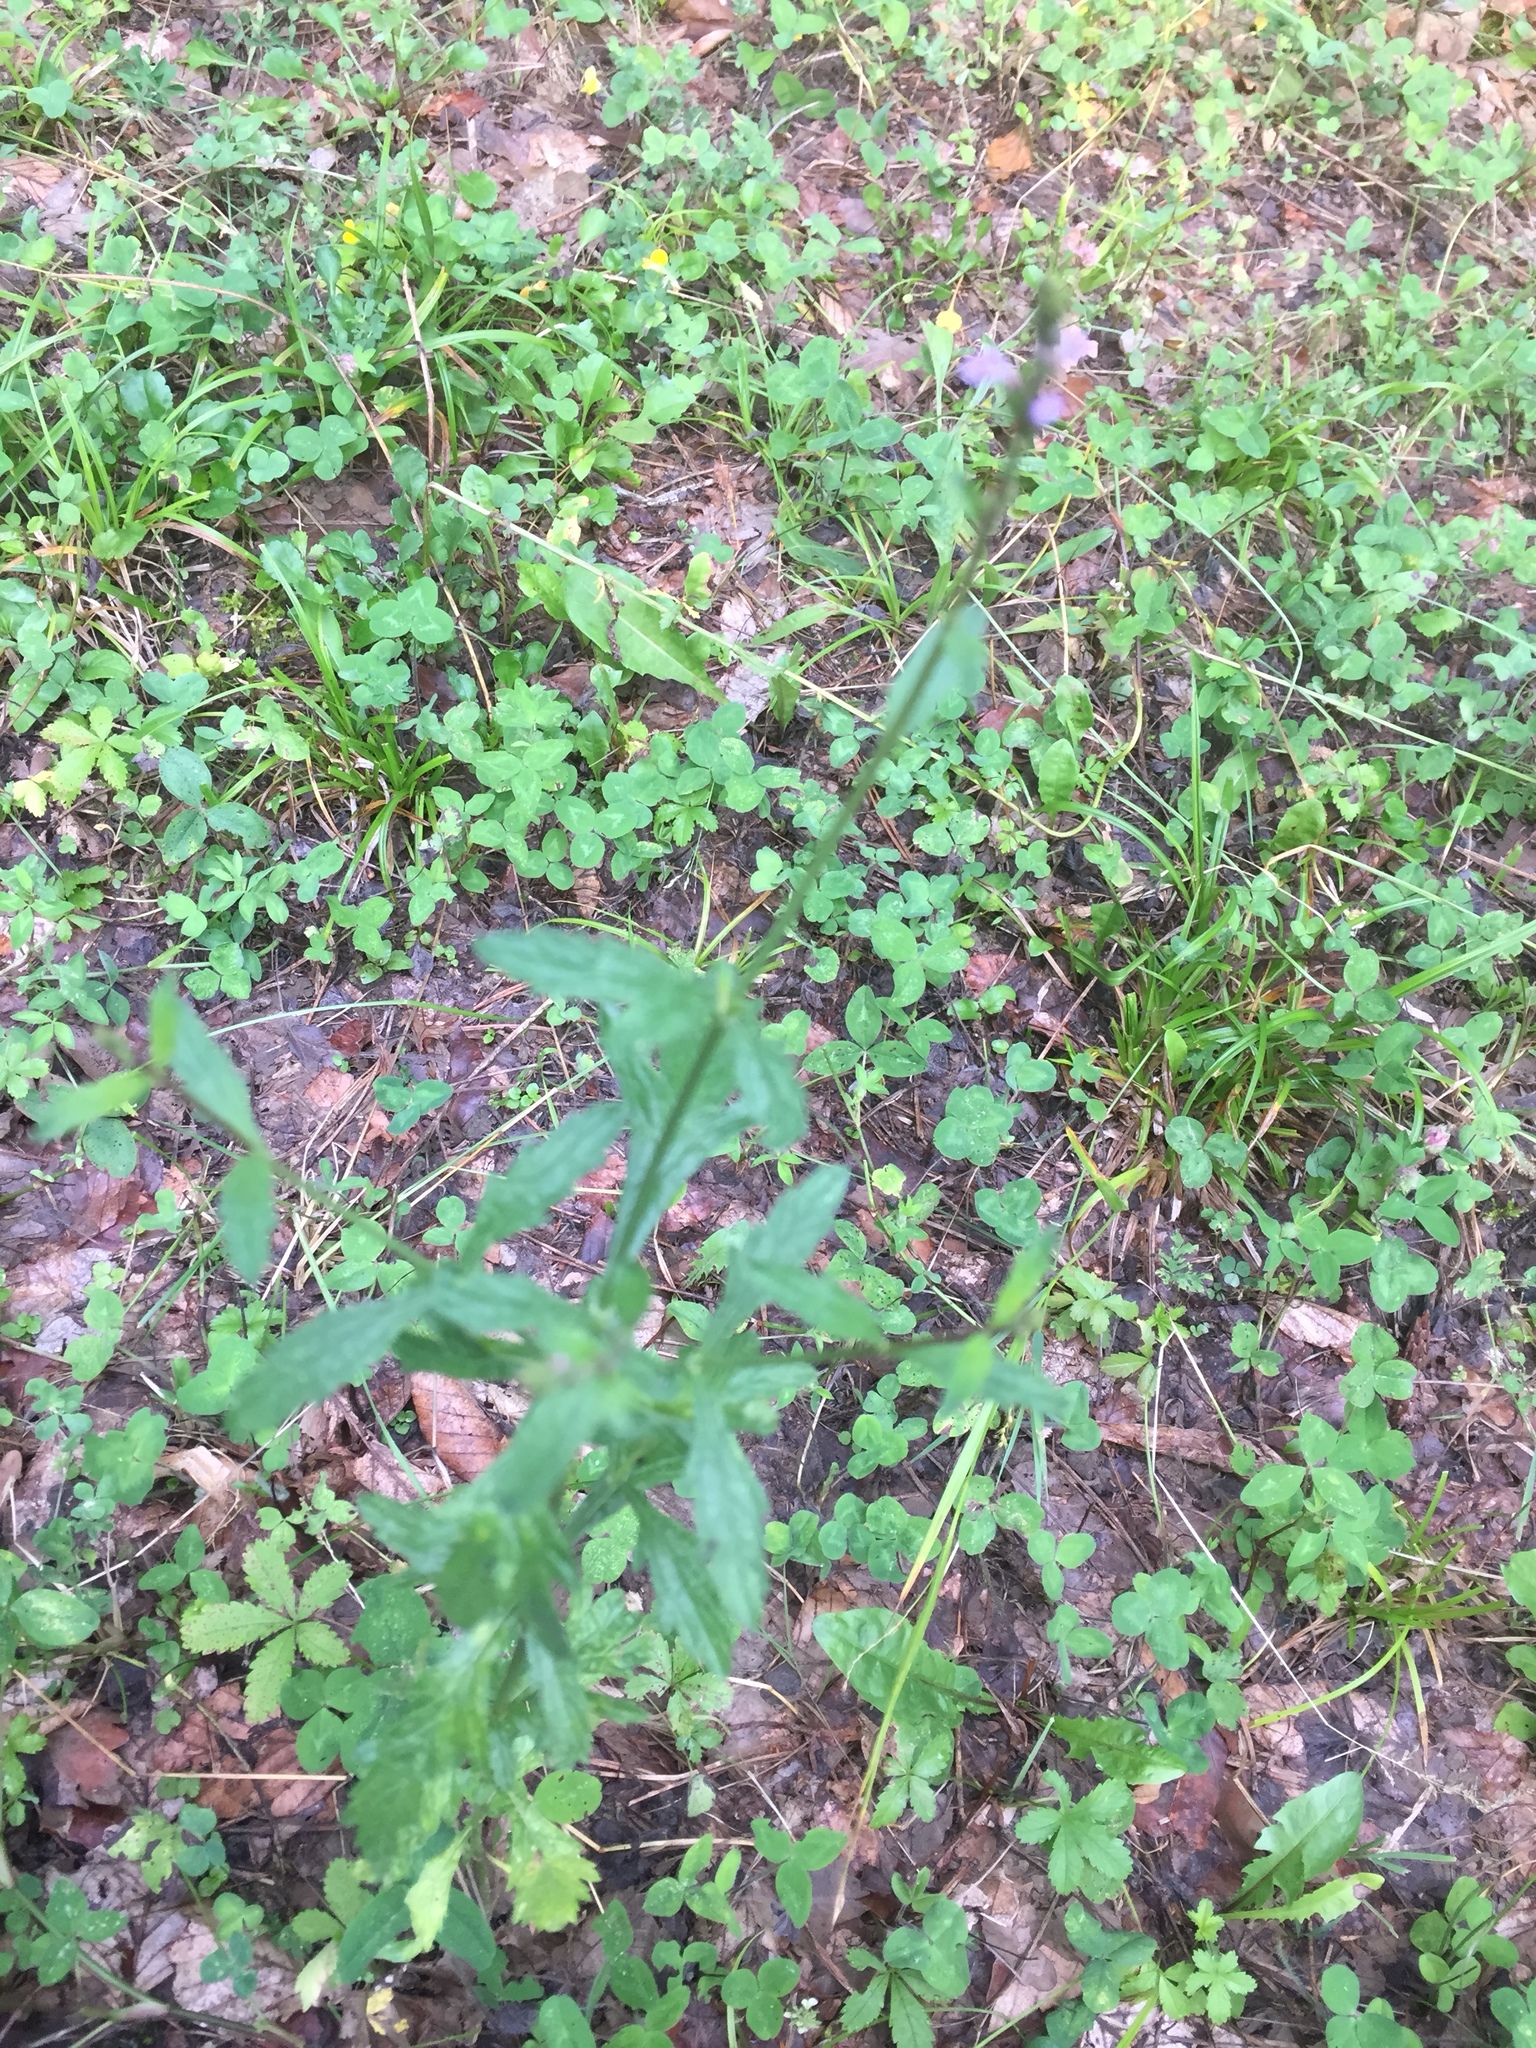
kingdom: Plantae
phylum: Tracheophyta
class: Magnoliopsida
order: Lamiales
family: Verbenaceae
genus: Verbena
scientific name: Verbena officinalis
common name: Vervain
